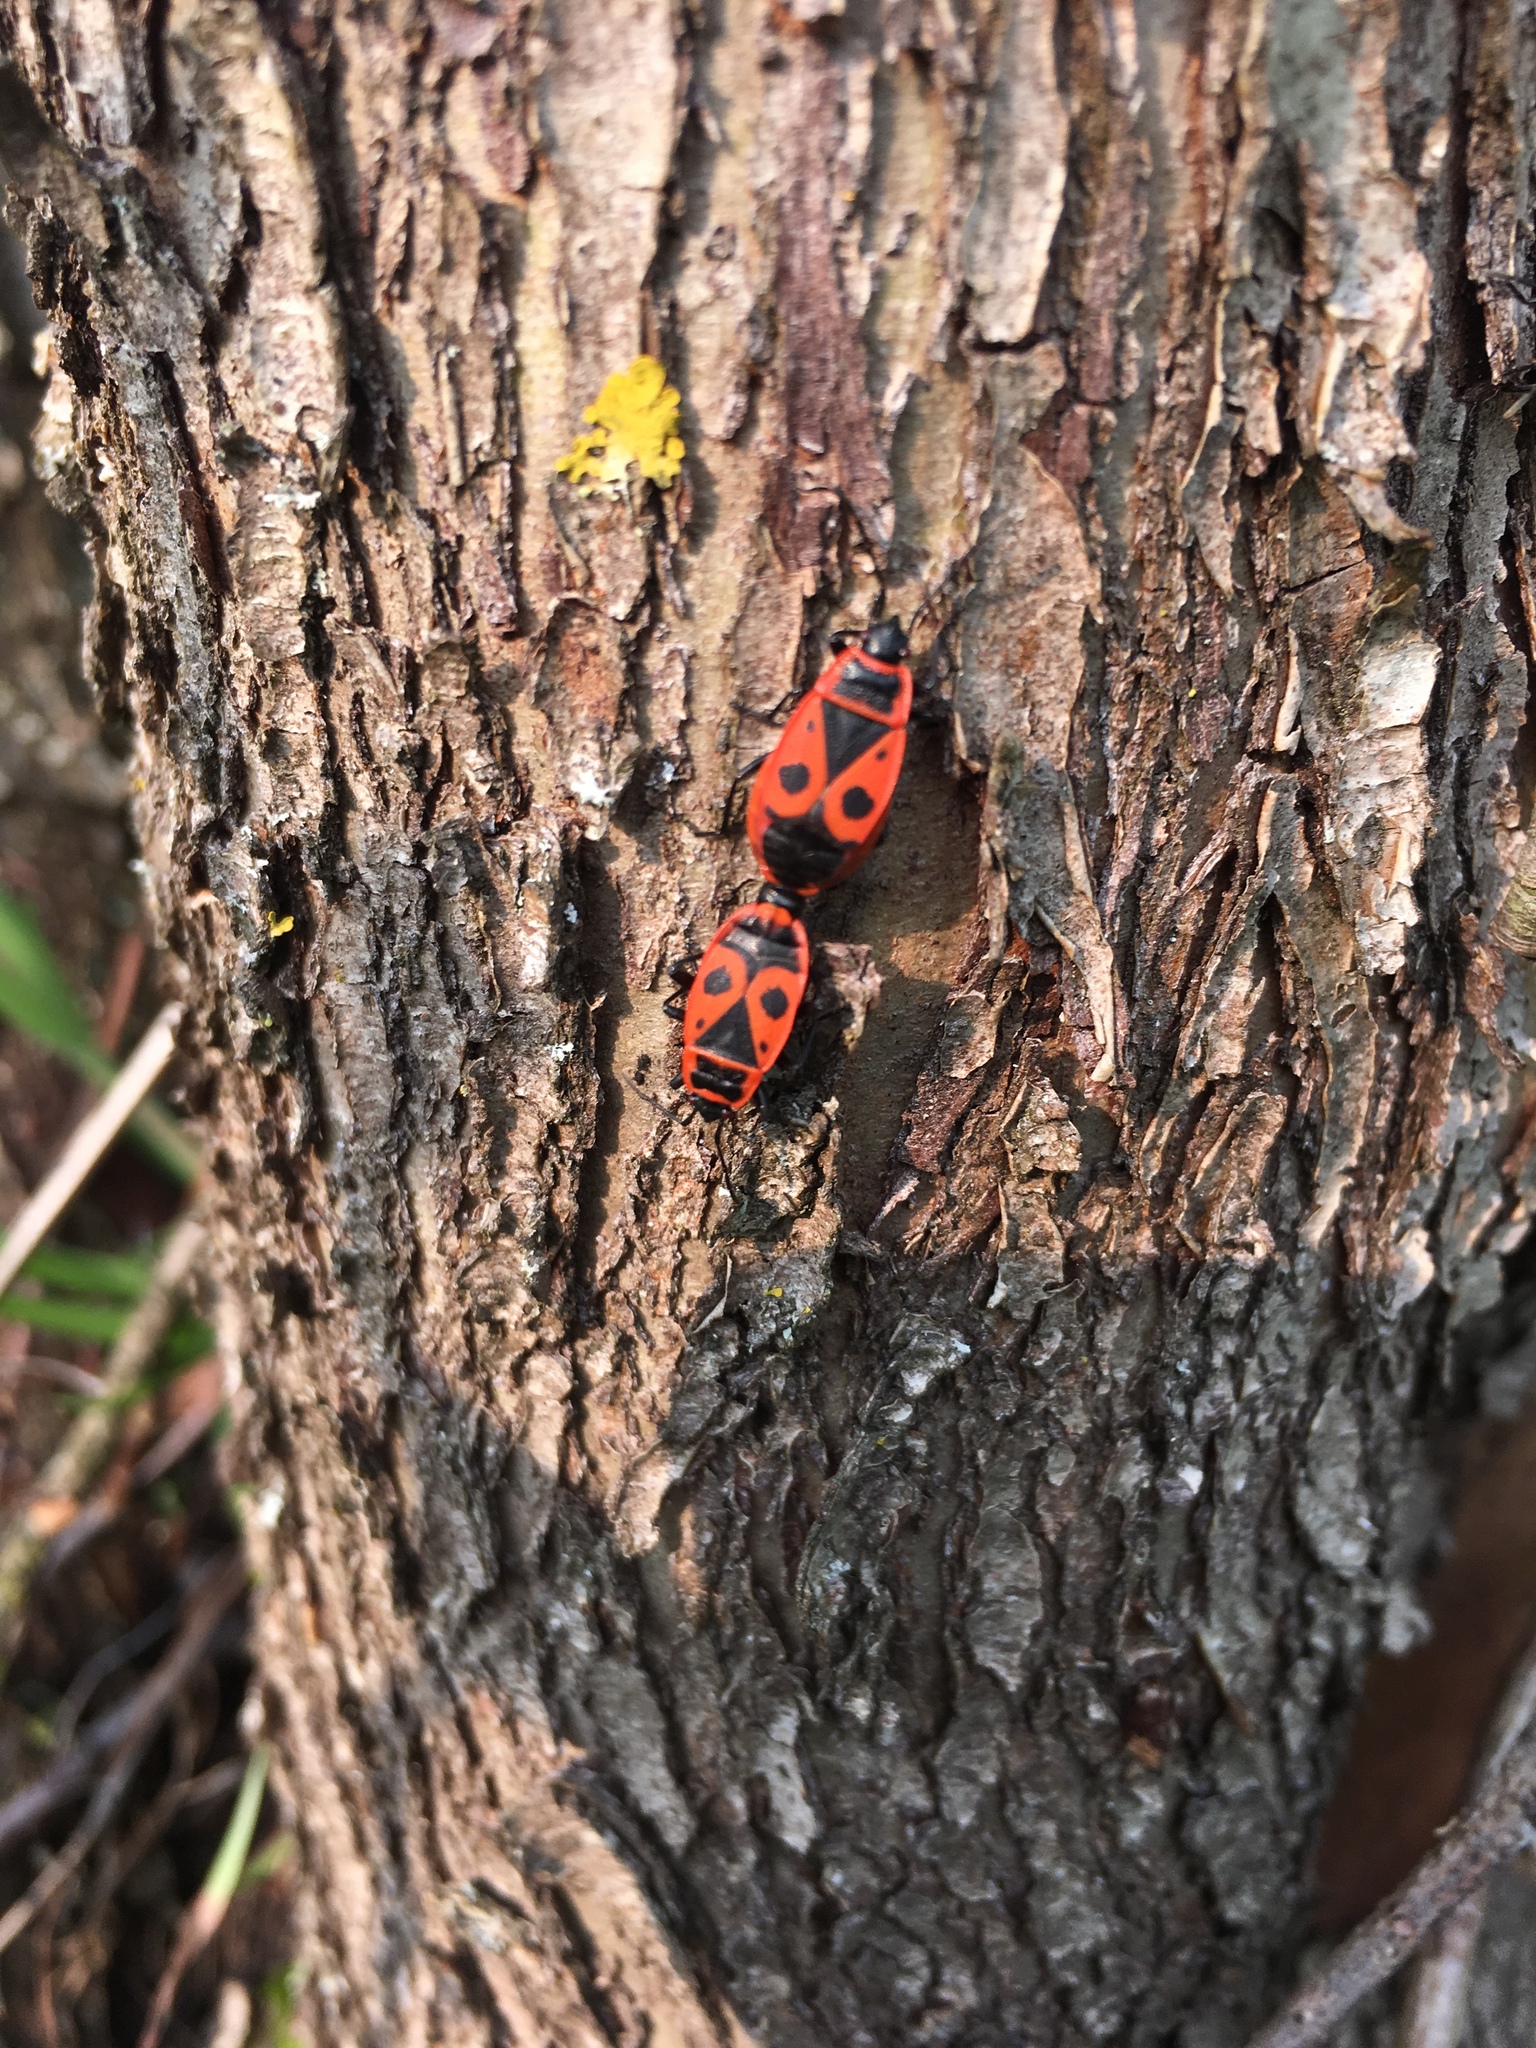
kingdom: Animalia
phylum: Arthropoda
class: Insecta
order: Hemiptera
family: Pyrrhocoridae
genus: Pyrrhocoris
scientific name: Pyrrhocoris apterus
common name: Firebug
